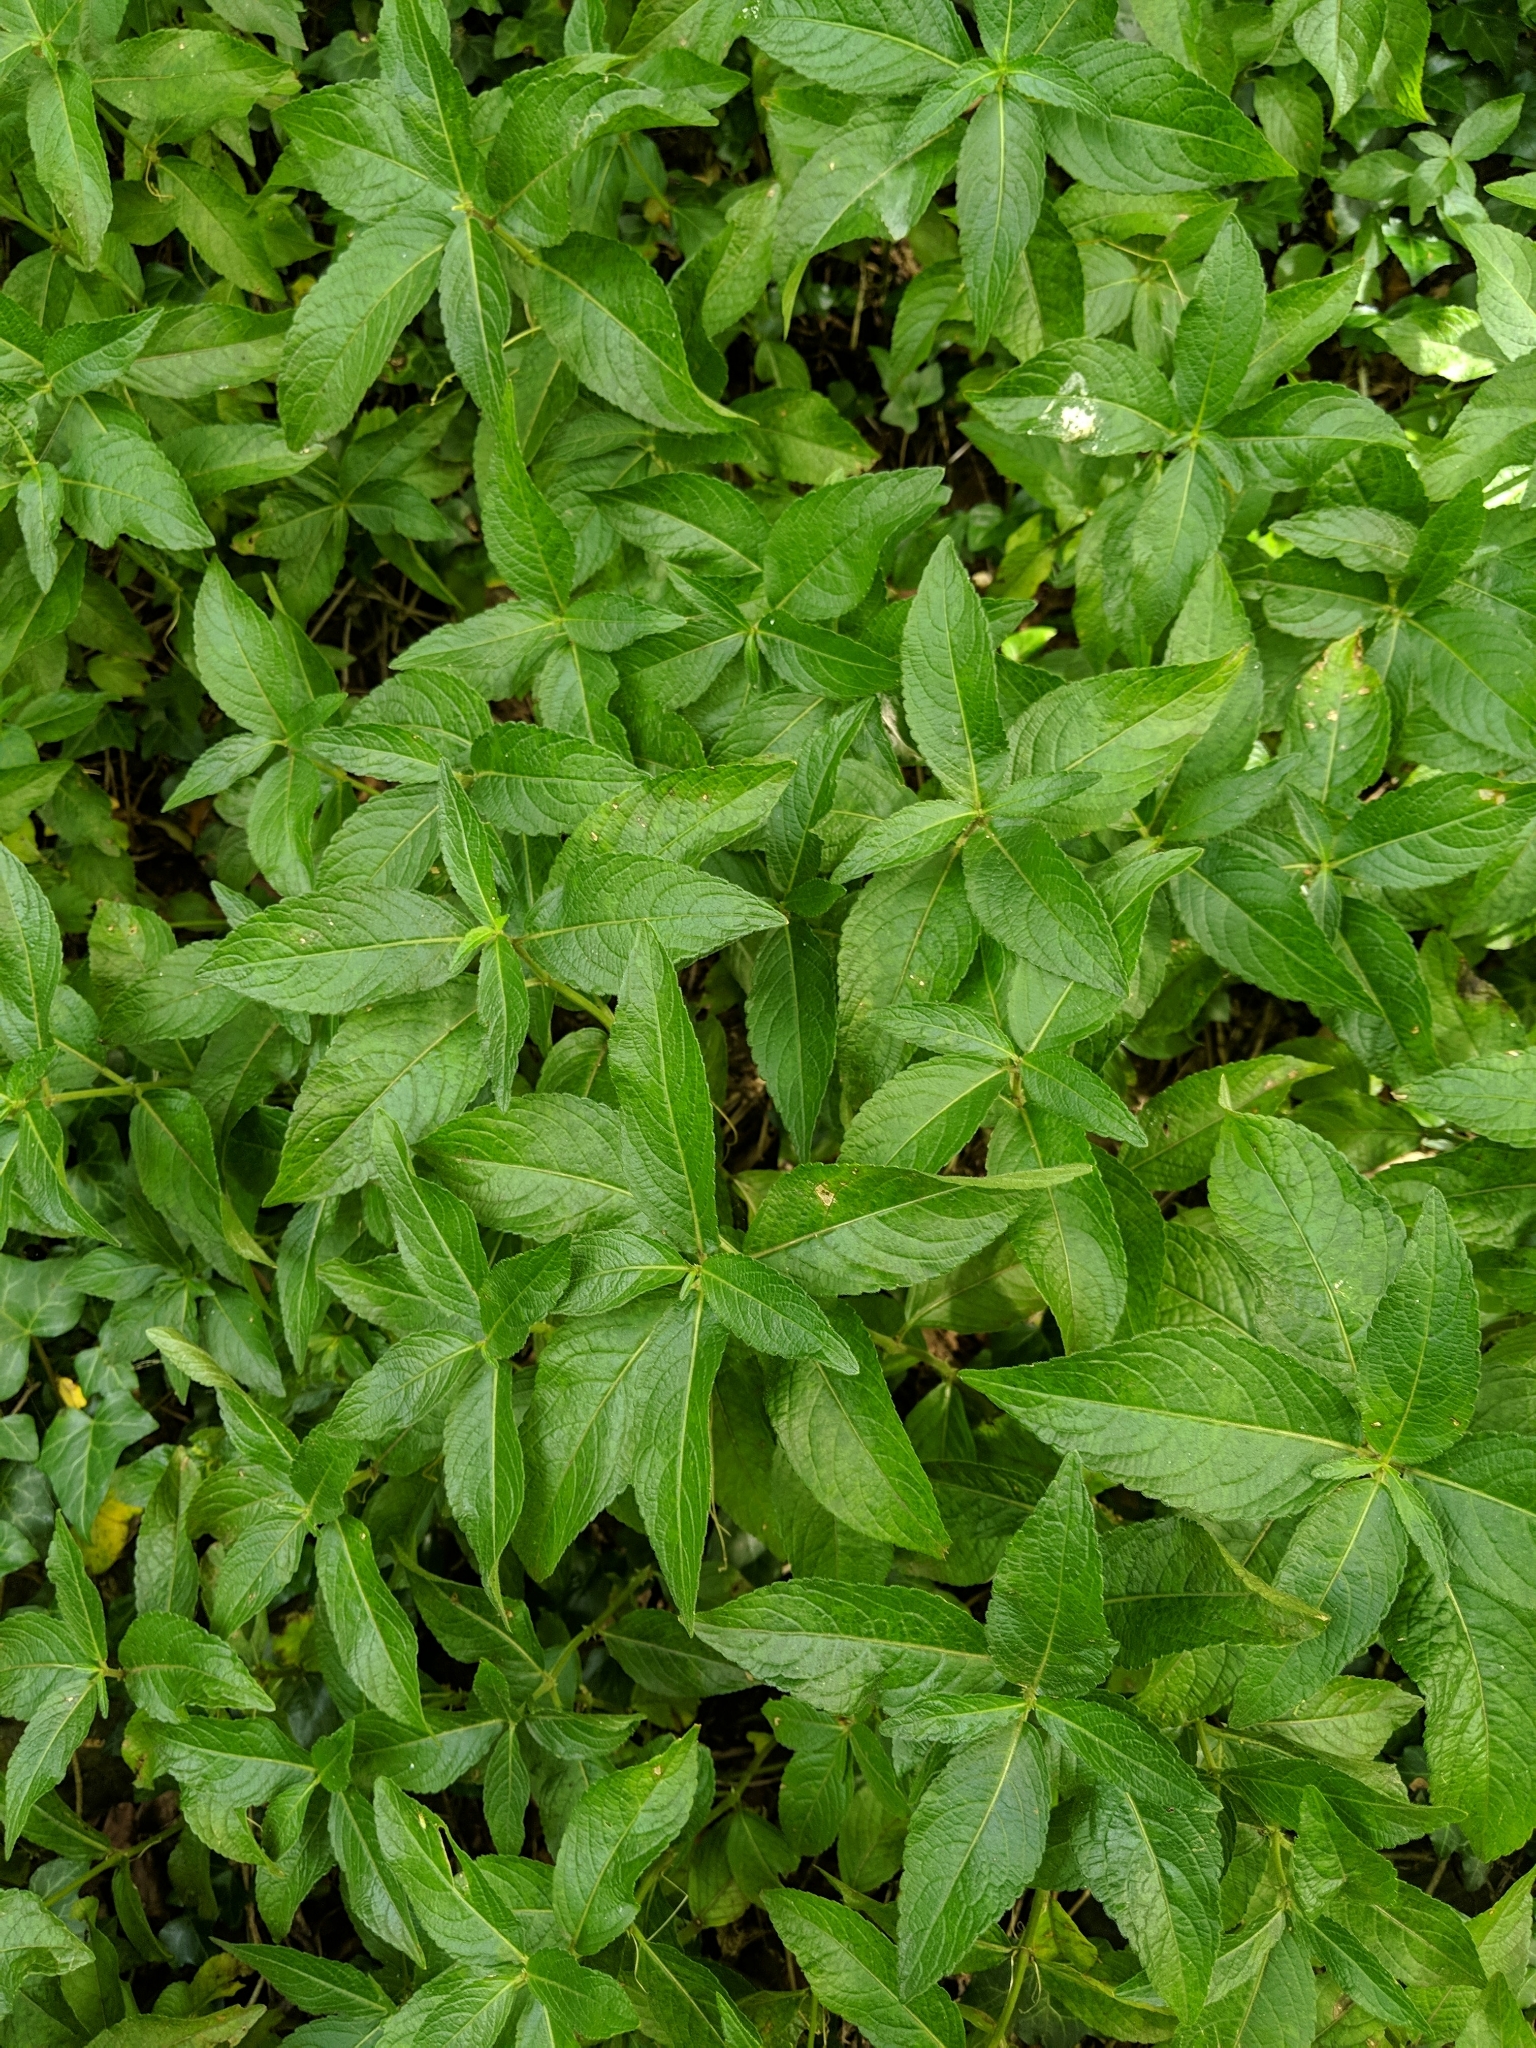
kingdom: Plantae
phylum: Tracheophyta
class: Magnoliopsida
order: Malpighiales
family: Euphorbiaceae
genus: Mercurialis
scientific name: Mercurialis perennis
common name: Dog mercury
